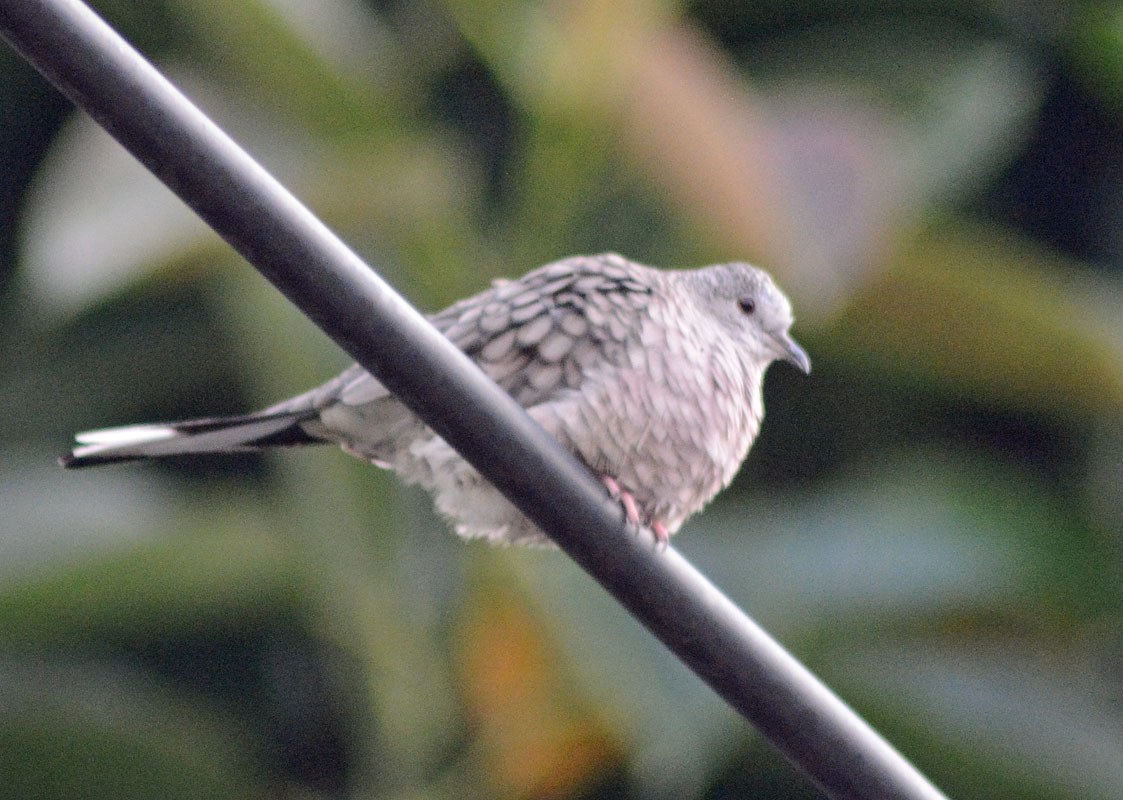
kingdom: Animalia
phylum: Chordata
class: Aves
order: Columbiformes
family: Columbidae
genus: Columbina
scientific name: Columbina inca
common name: Inca dove
